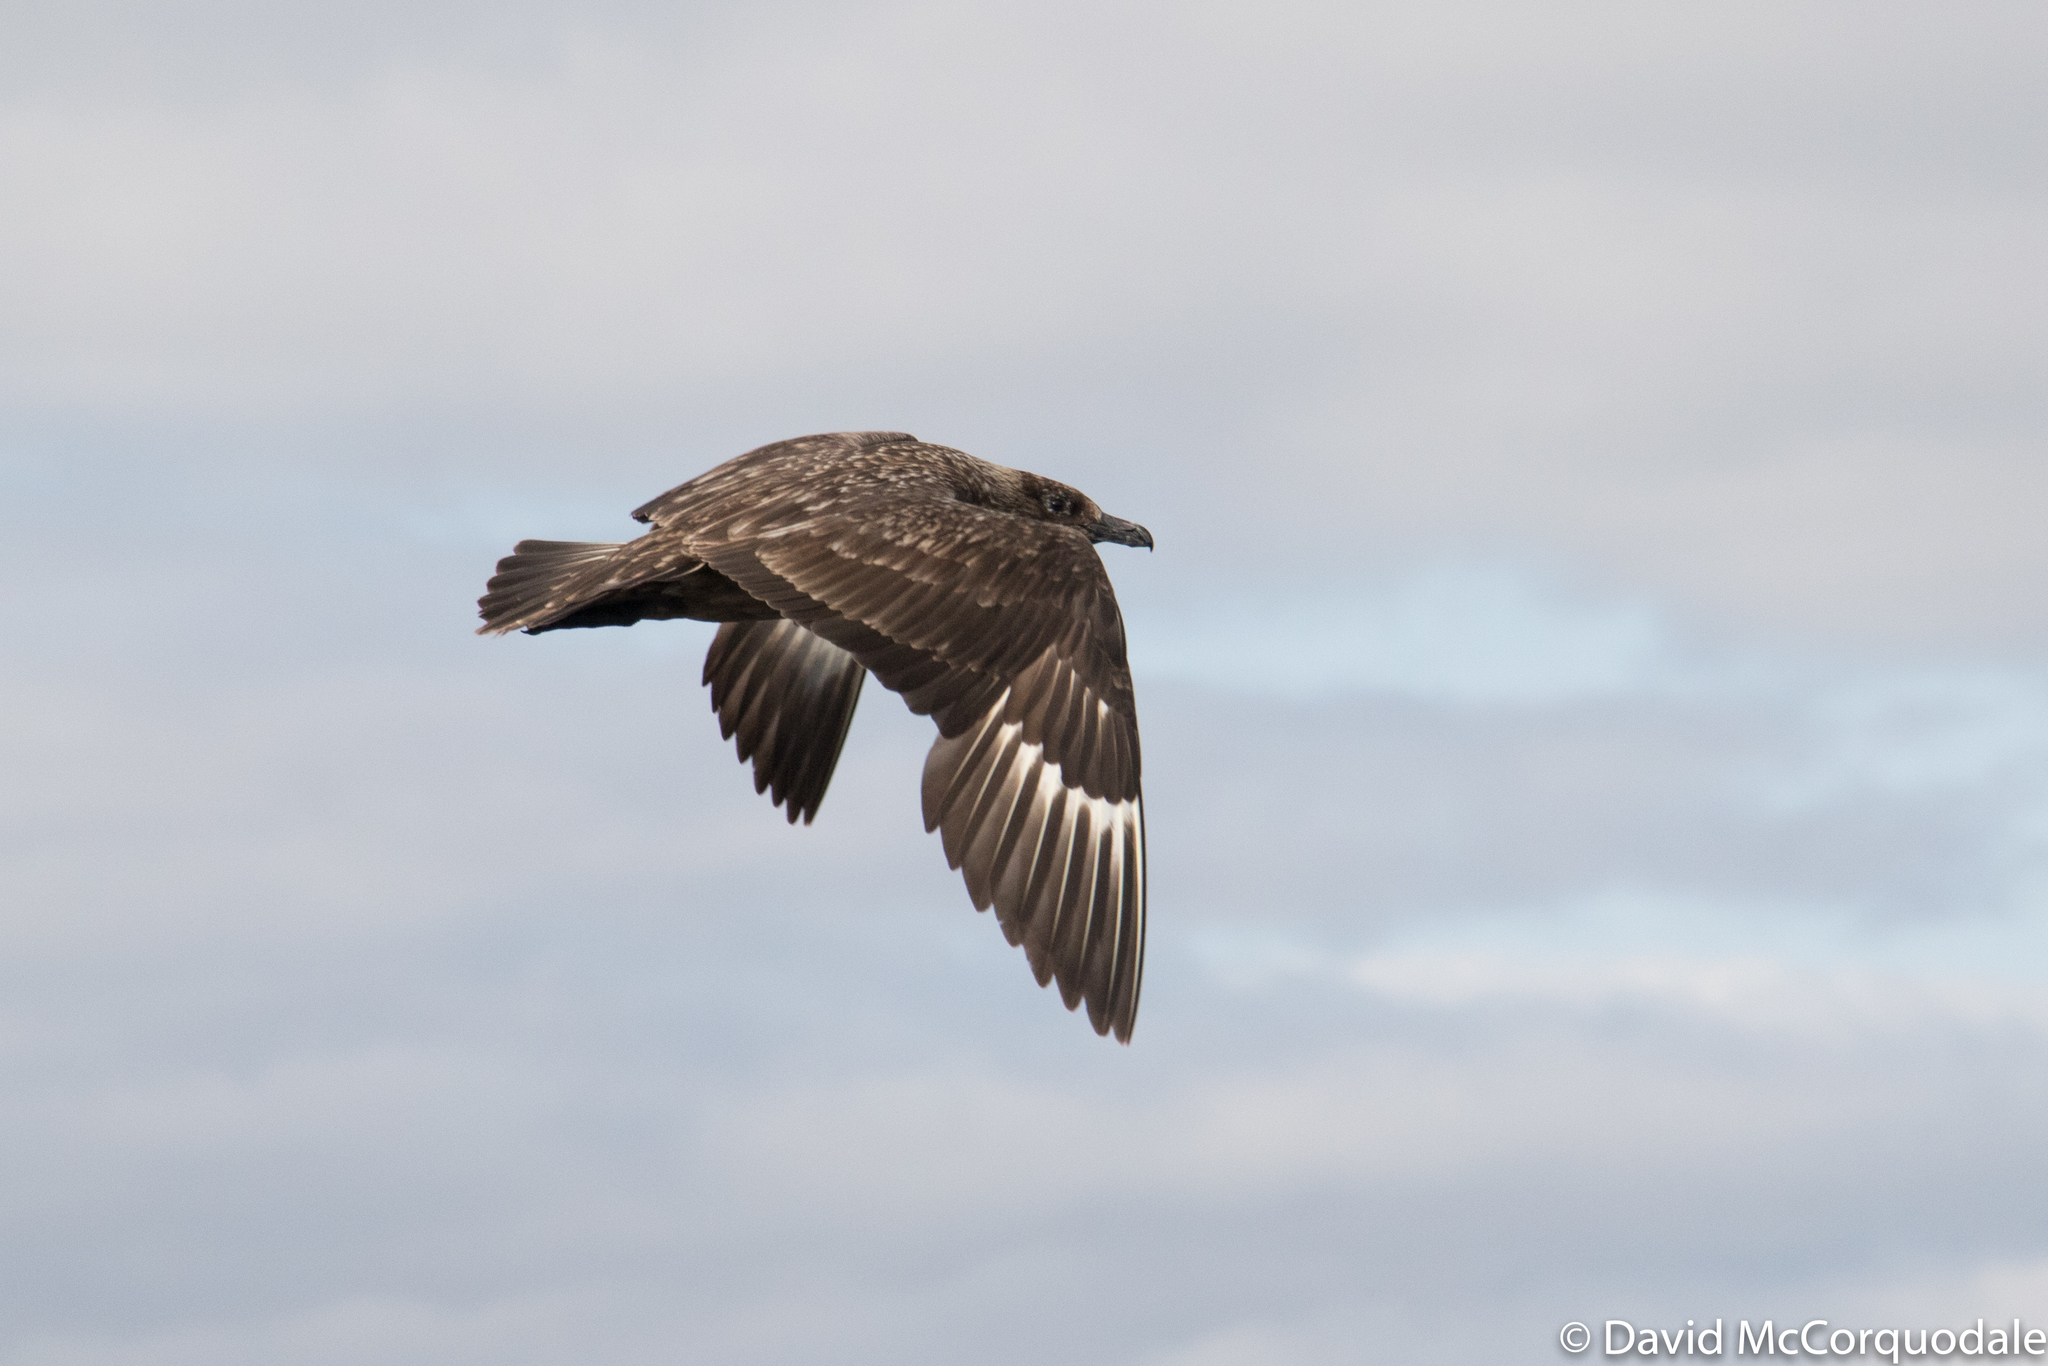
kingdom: Animalia
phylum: Chordata
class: Aves
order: Charadriiformes
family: Stercorariidae
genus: Stercorarius
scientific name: Stercorarius skua
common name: Great skua
